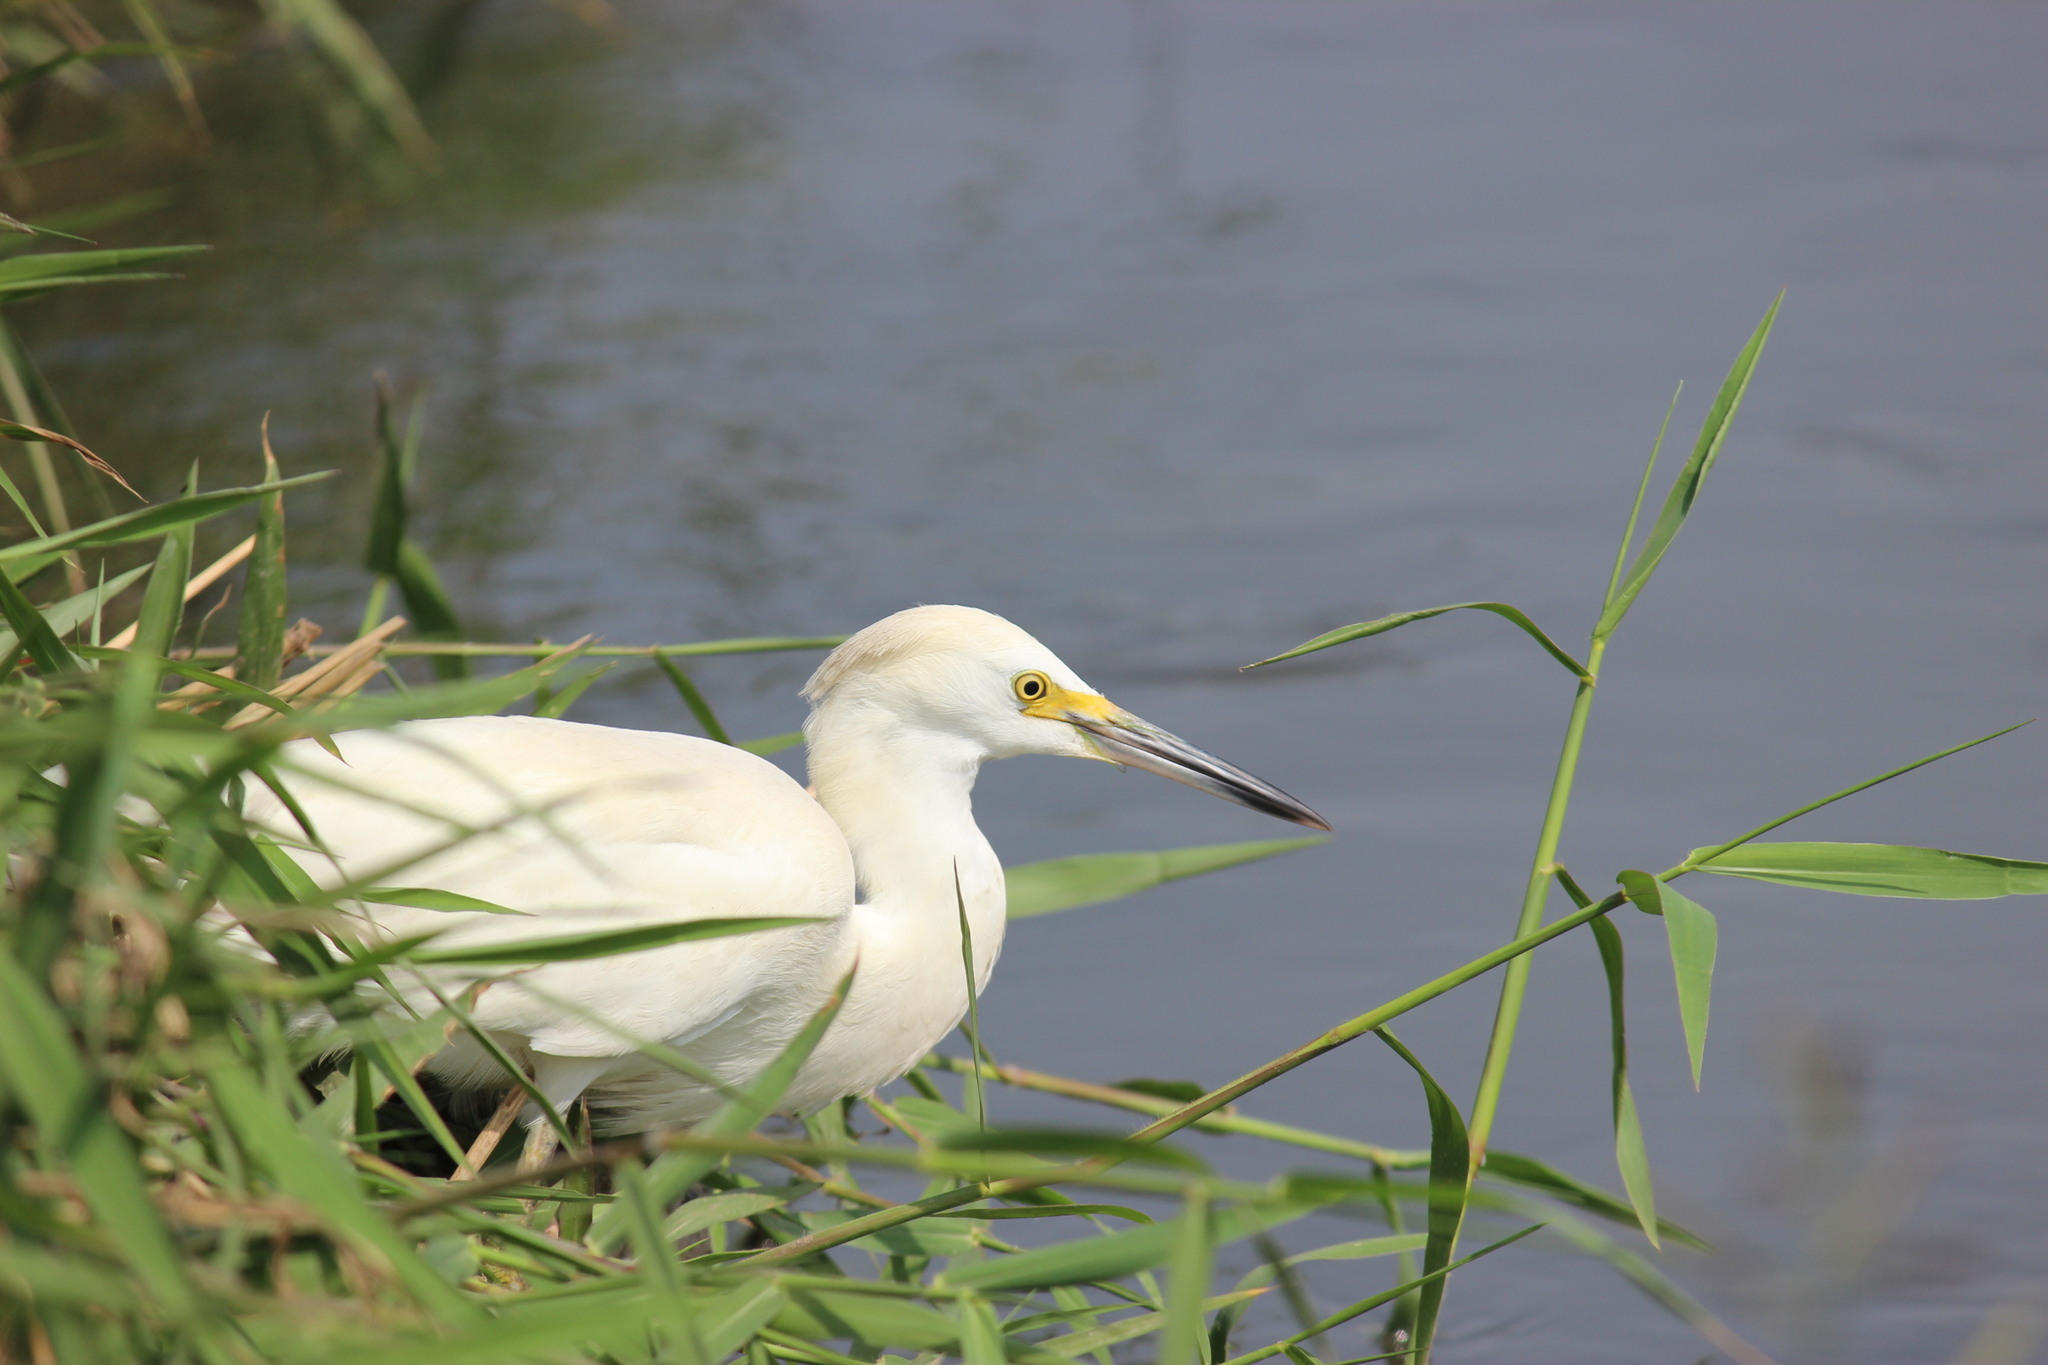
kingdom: Animalia
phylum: Chordata
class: Aves
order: Pelecaniformes
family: Ardeidae
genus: Egretta
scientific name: Egretta thula
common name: Snowy egret
